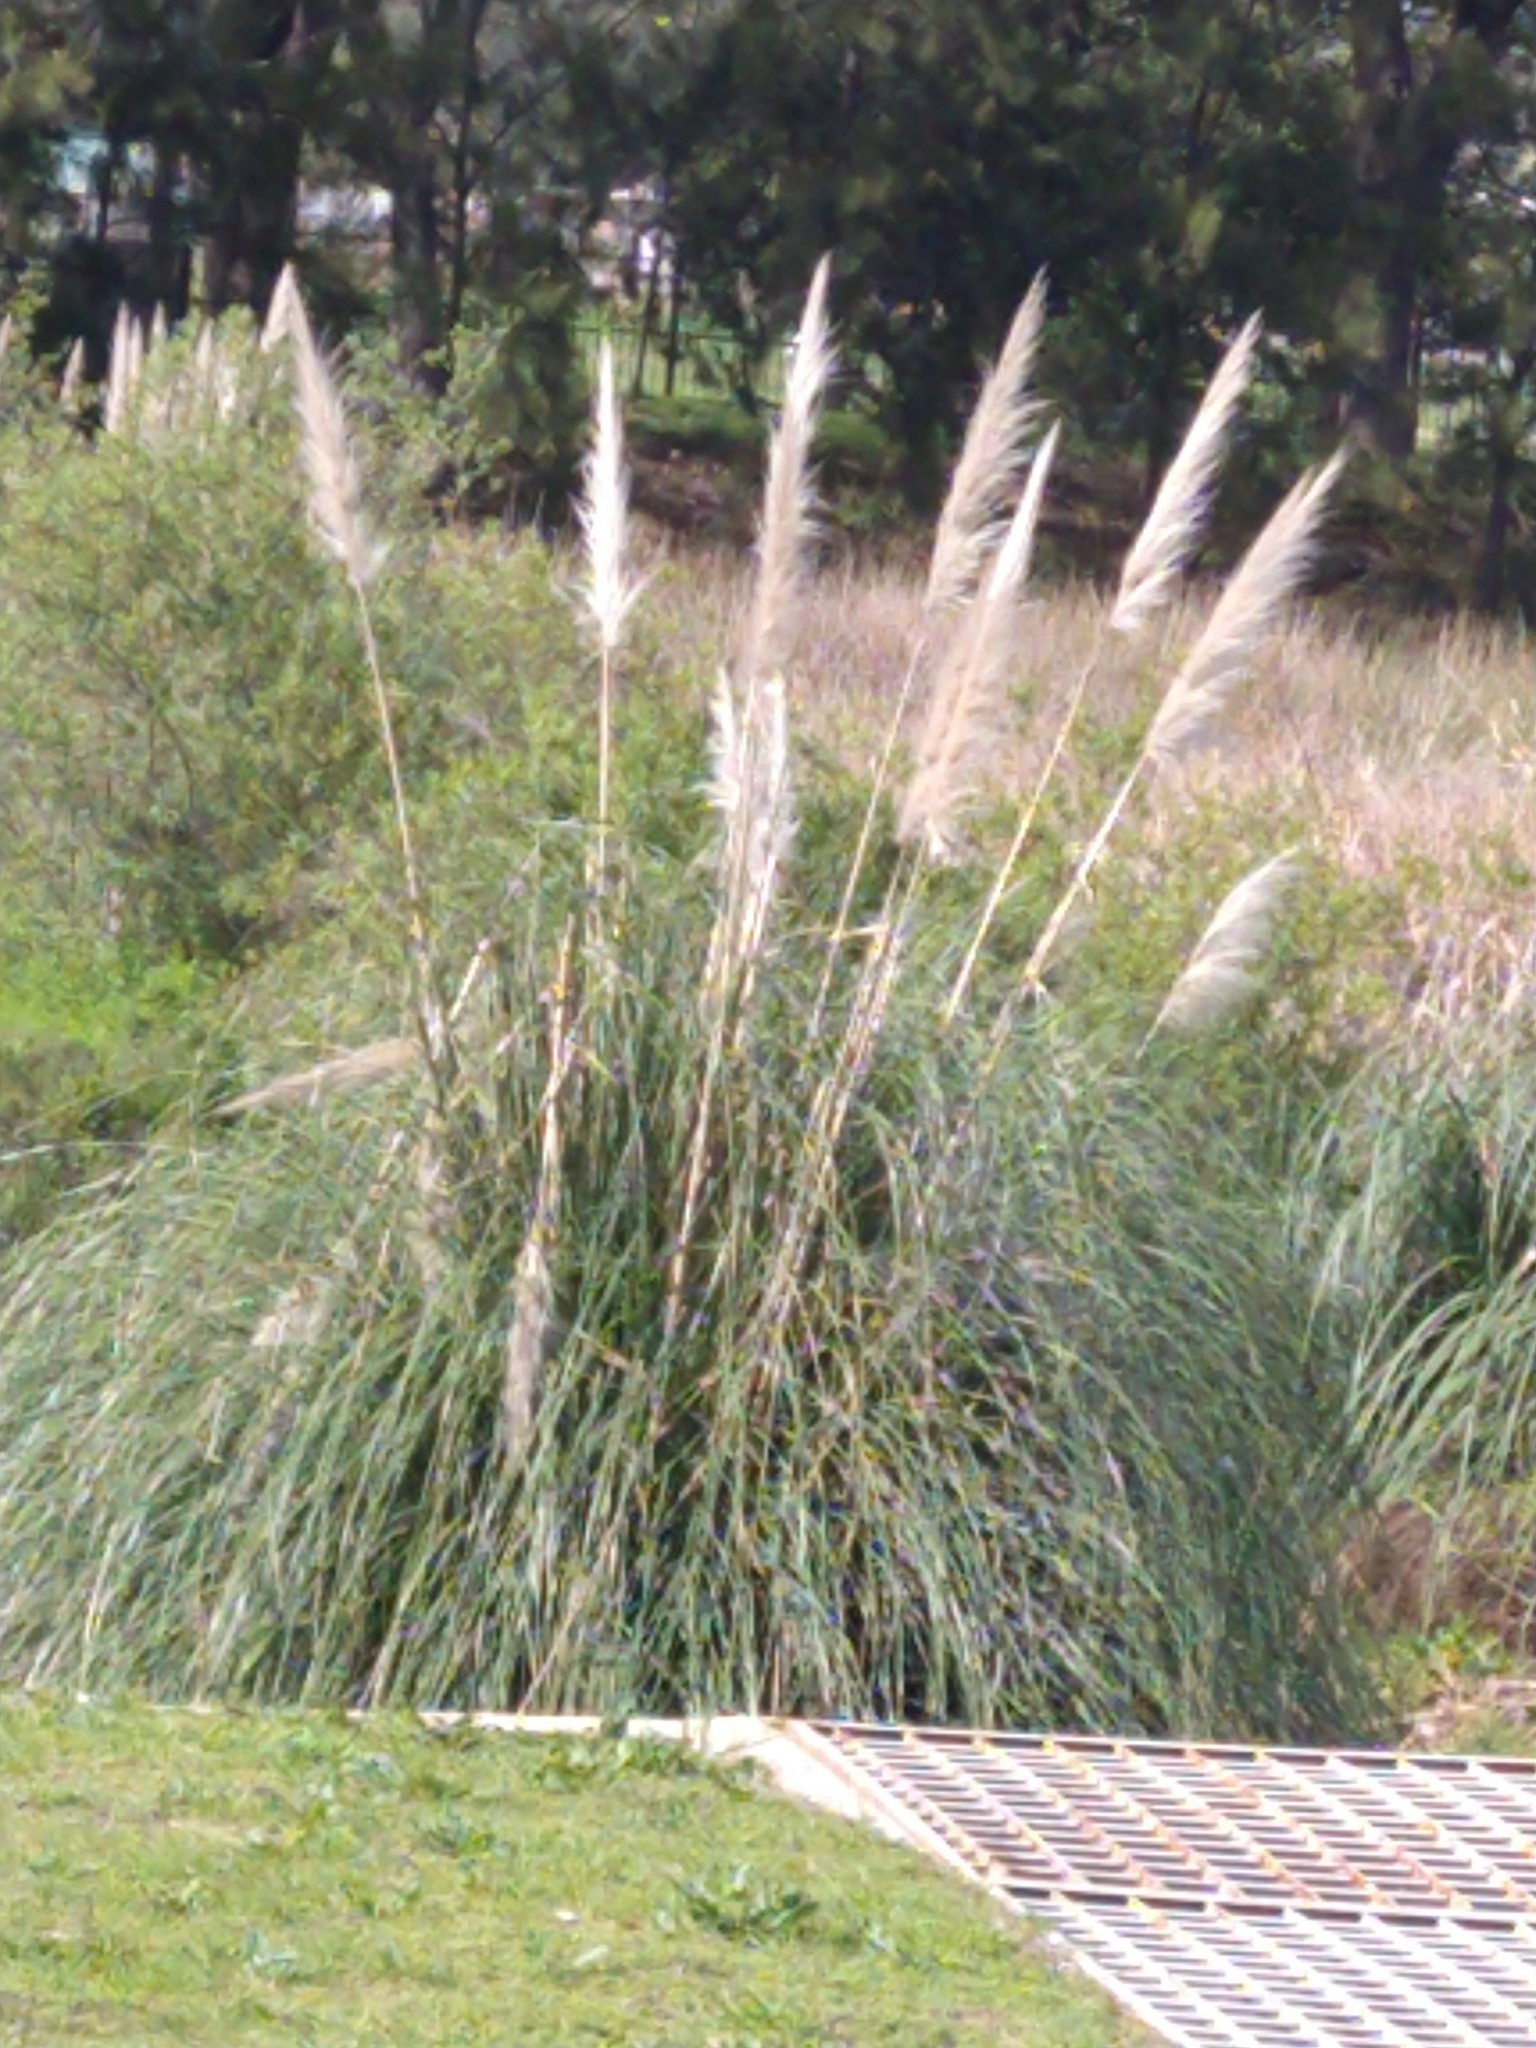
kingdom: Plantae
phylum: Tracheophyta
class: Liliopsida
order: Poales
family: Poaceae
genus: Cortaderia
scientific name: Cortaderia selloana
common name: Uruguayan pampas grass
